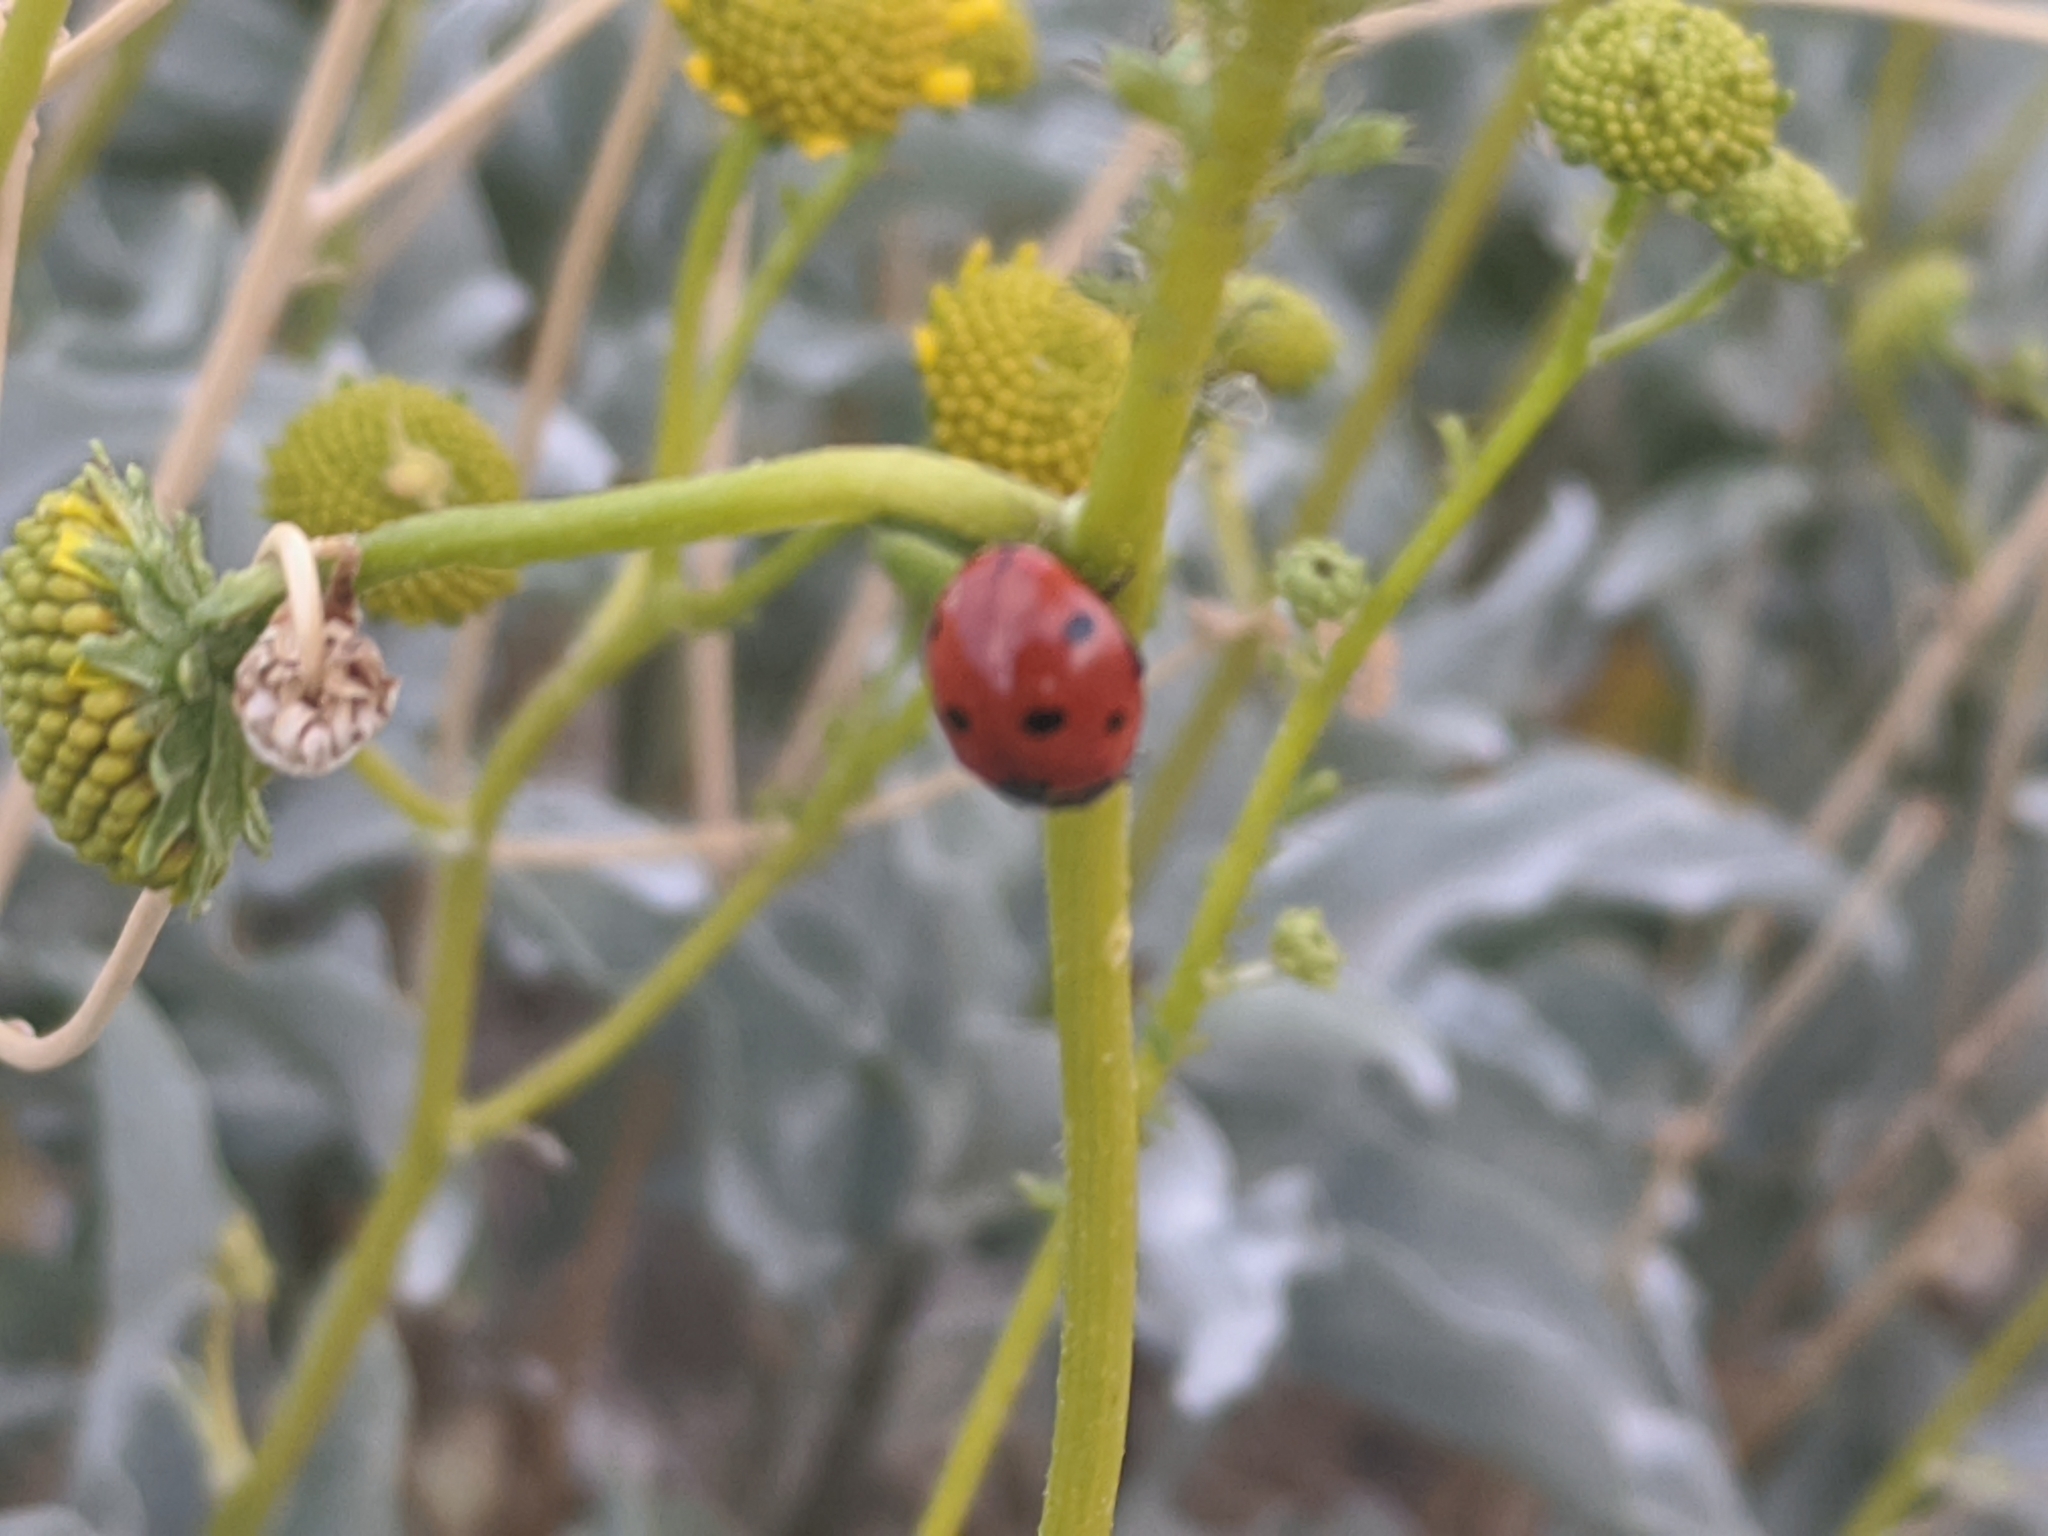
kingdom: Animalia
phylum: Arthropoda
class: Insecta
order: Coleoptera
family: Coccinellidae
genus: Coccinella
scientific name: Coccinella septempunctata
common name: Sevenspotted lady beetle
